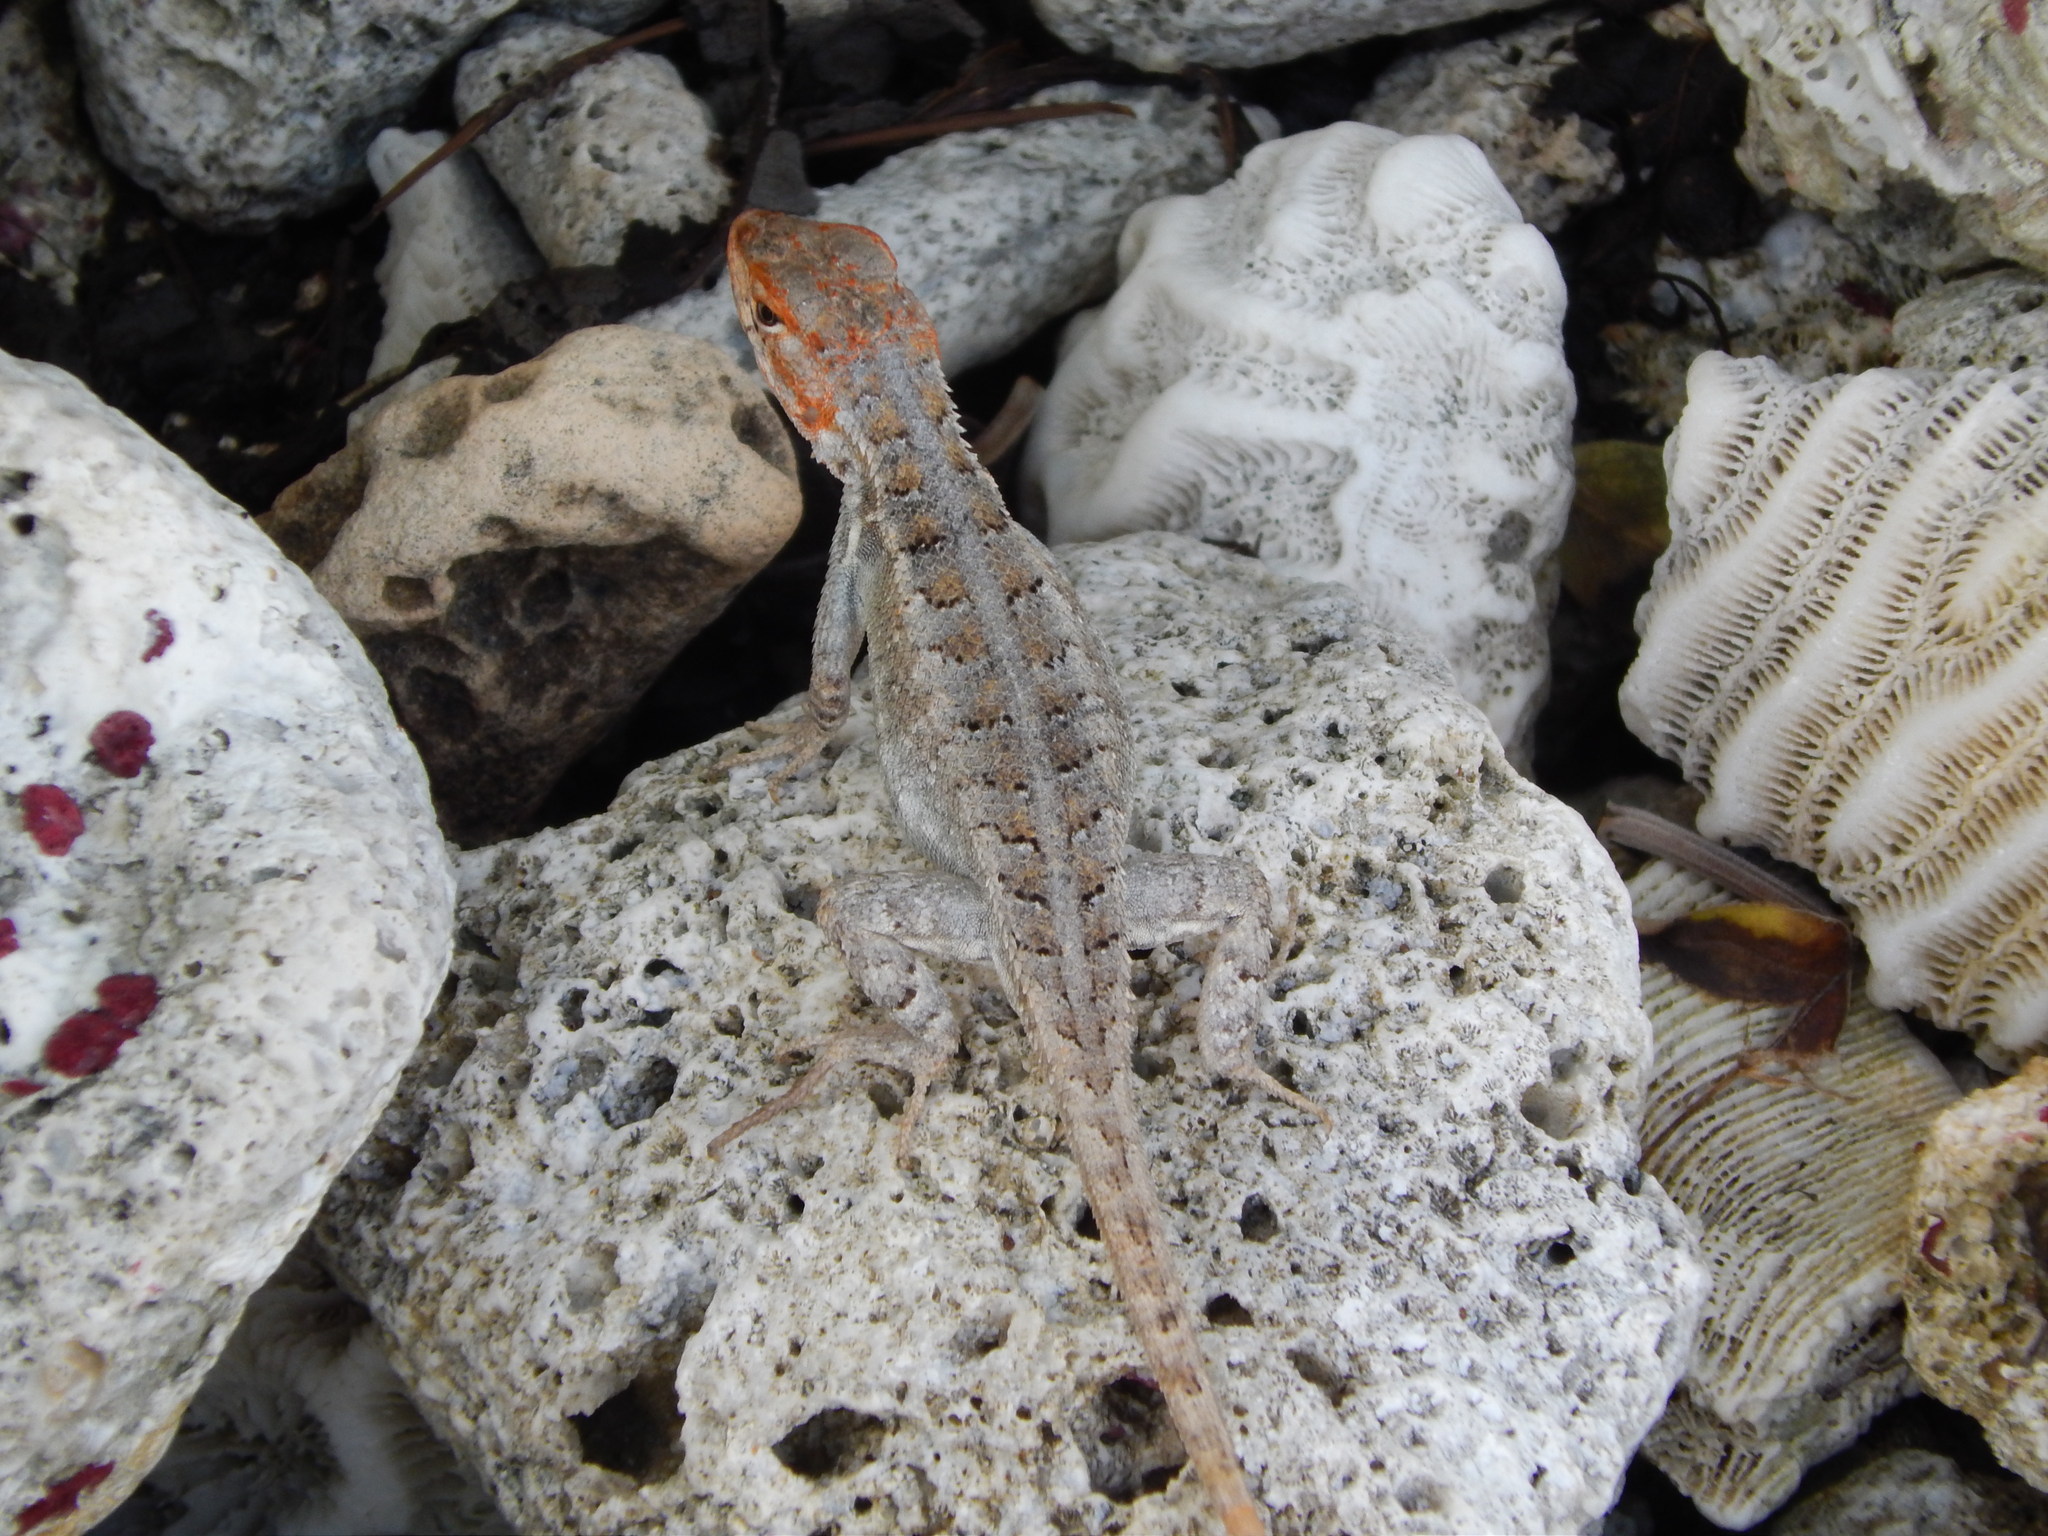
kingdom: Animalia
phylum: Chordata
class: Squamata
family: Phrynosomatidae
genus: Sceloporus
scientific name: Sceloporus cozumelae
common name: Cozumel spiny lizard
